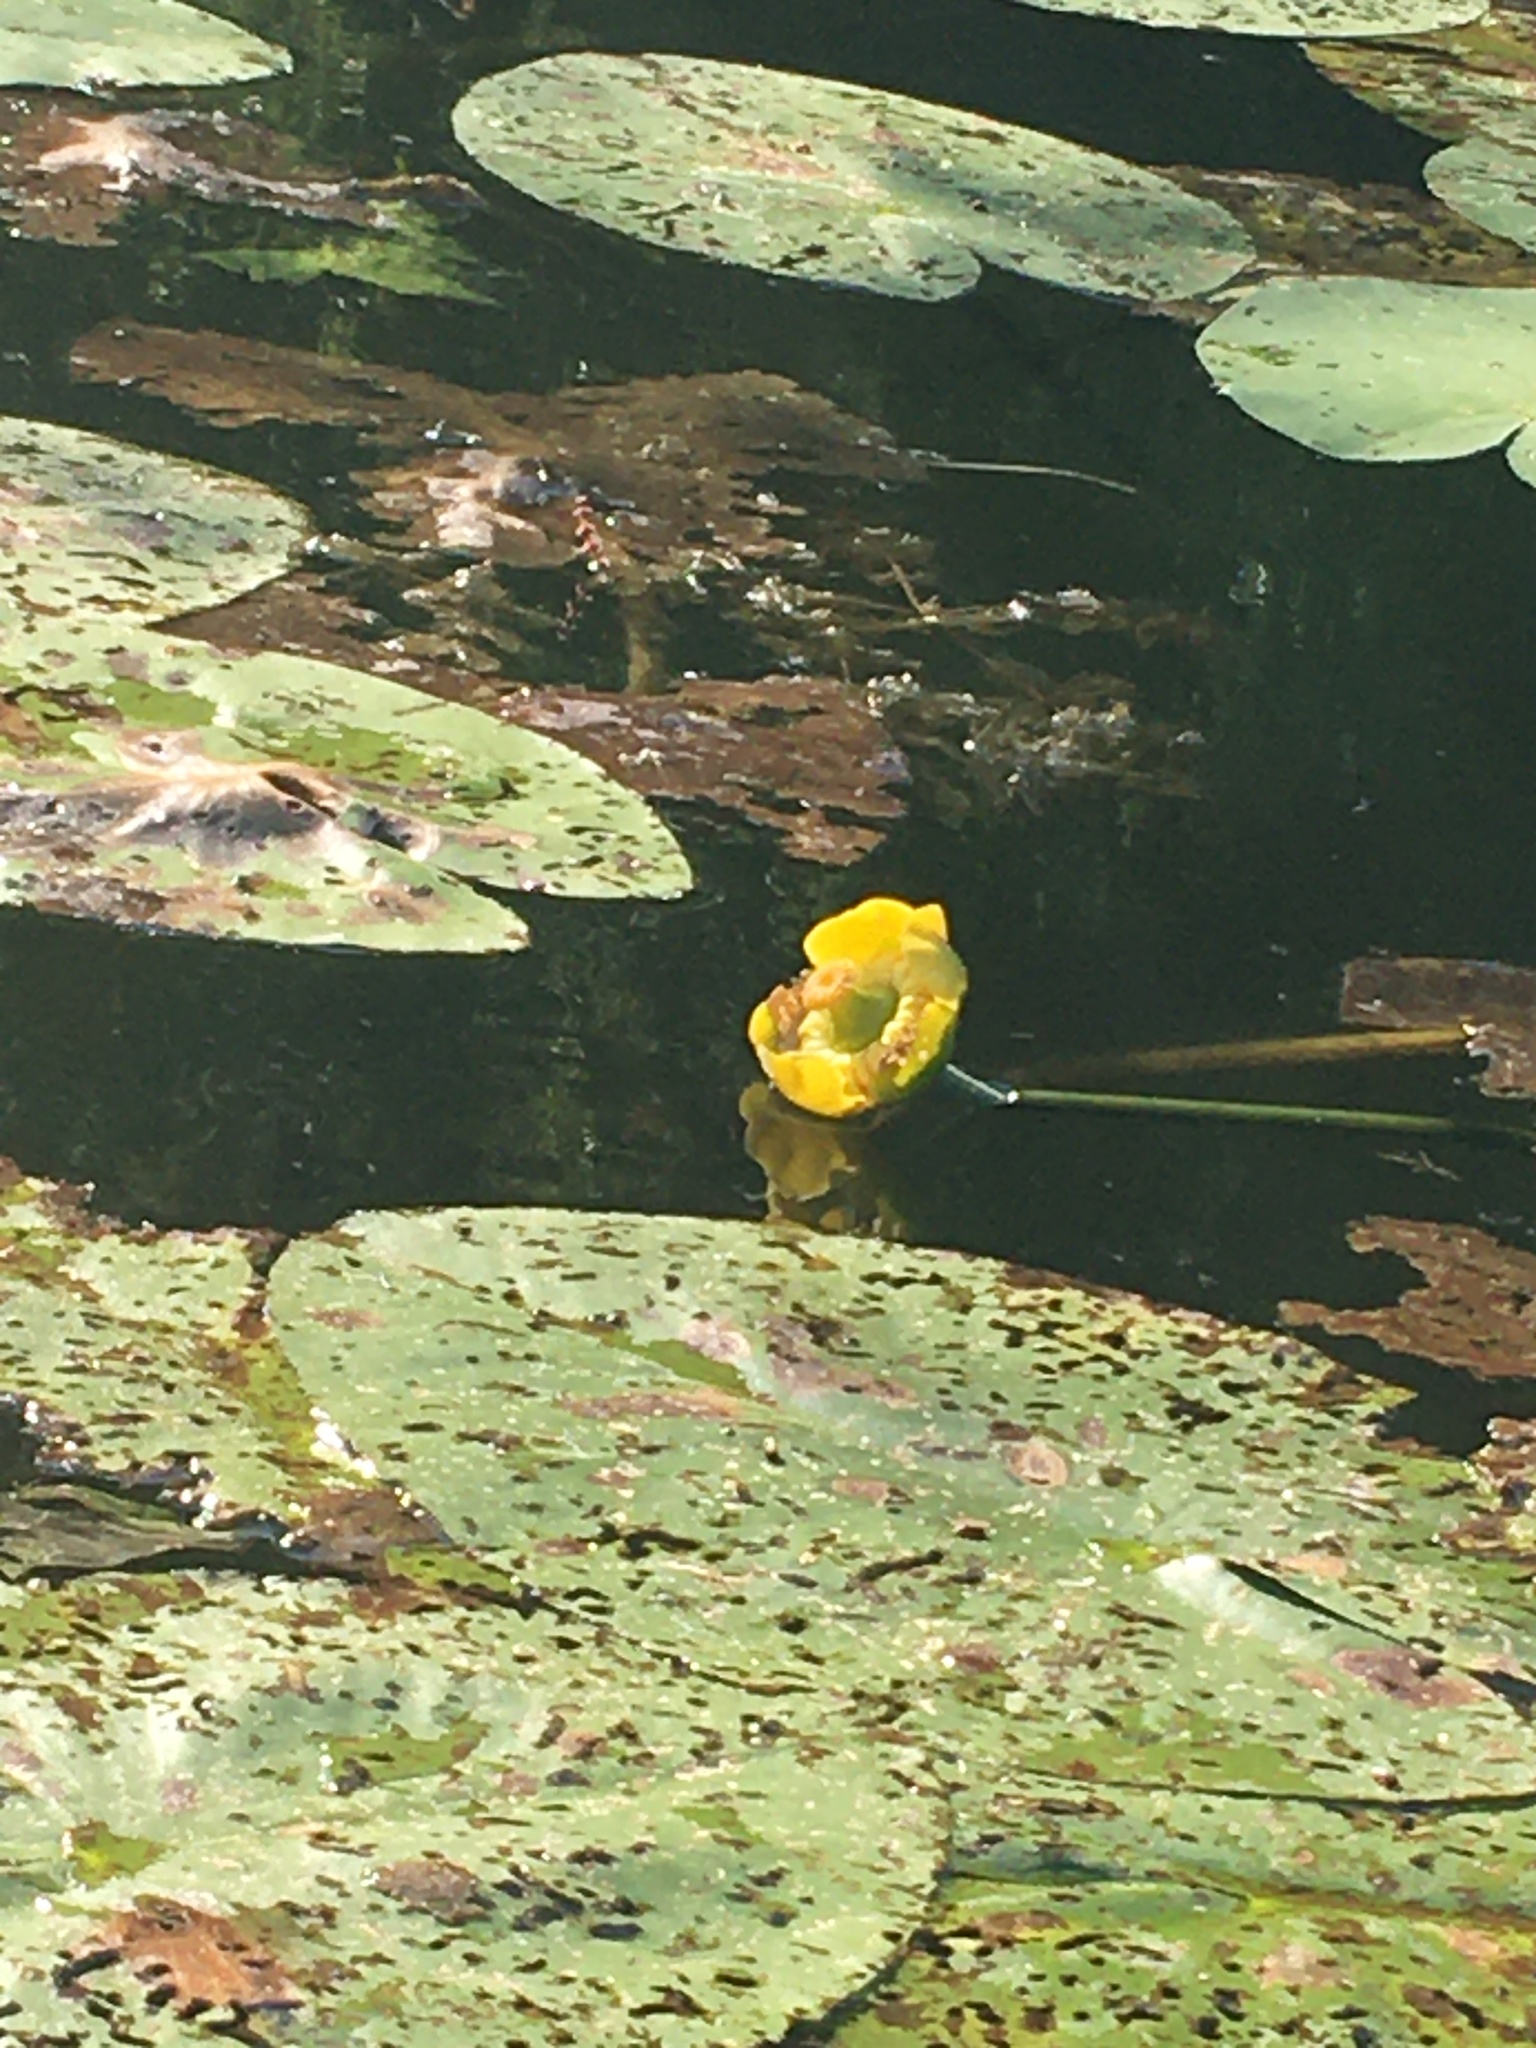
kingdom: Plantae
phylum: Tracheophyta
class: Magnoliopsida
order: Nymphaeales
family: Nymphaeaceae
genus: Nuphar
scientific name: Nuphar lutea
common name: Yellow water-lily
